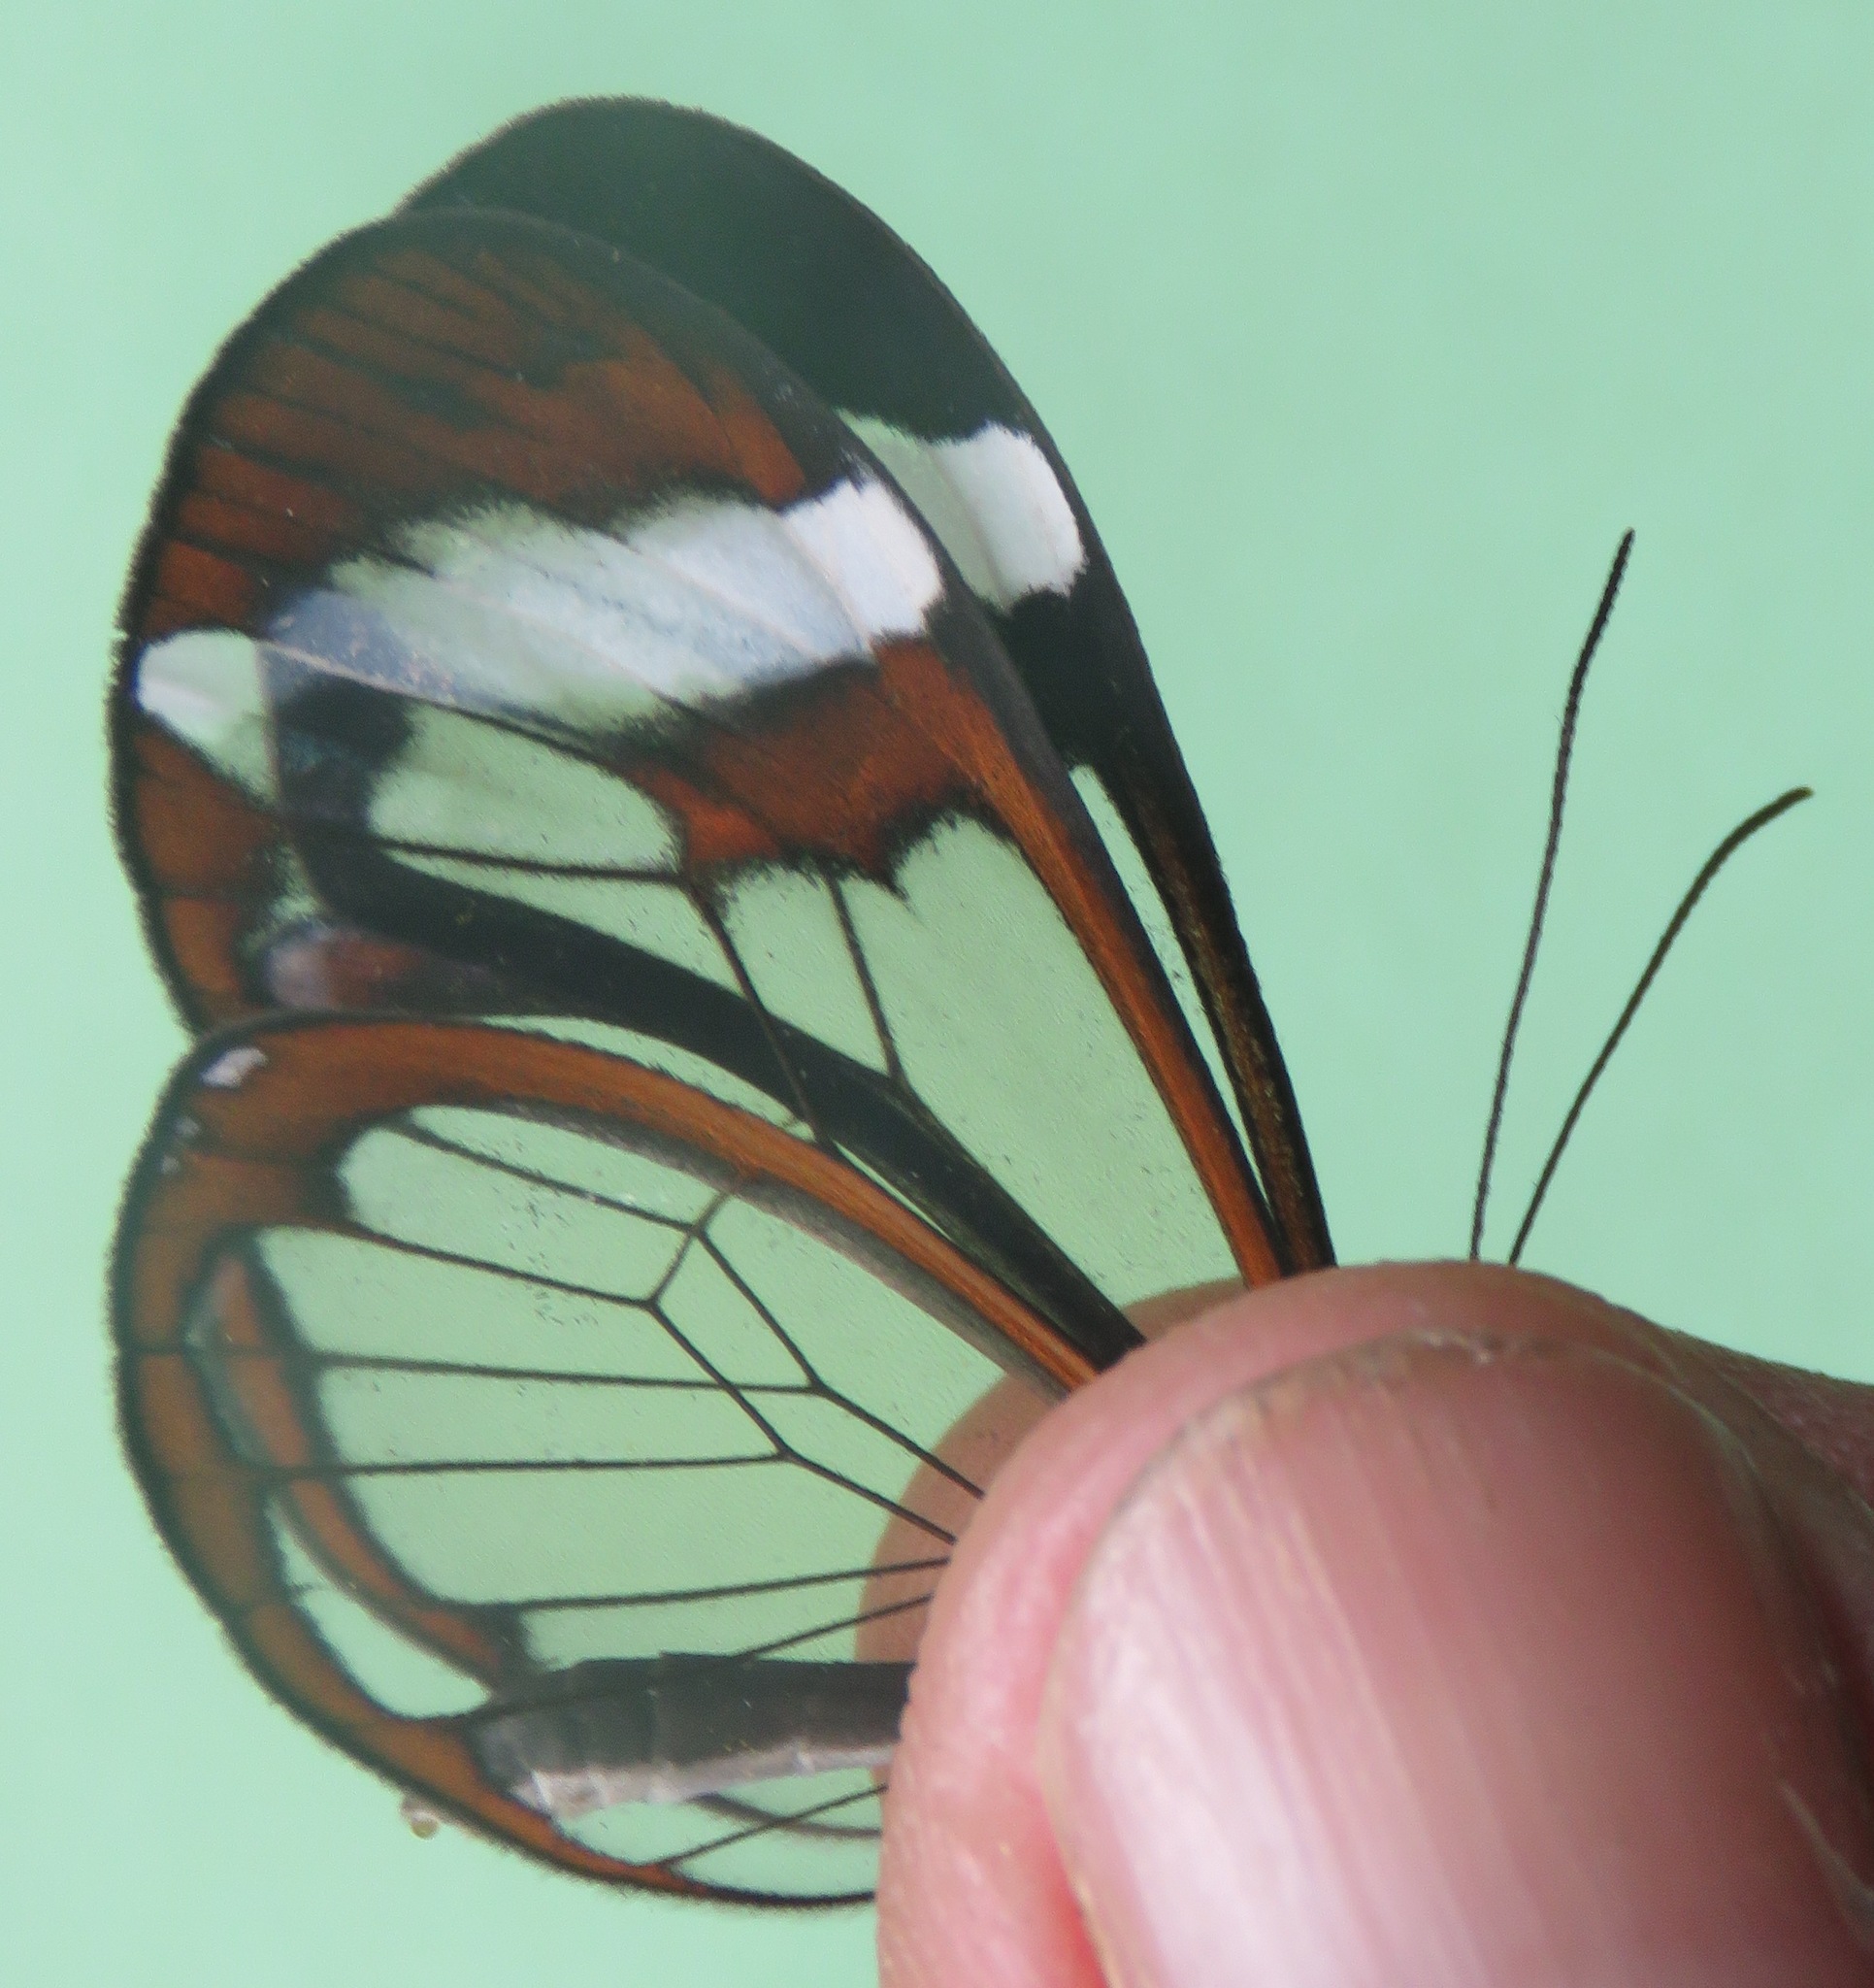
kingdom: Animalia
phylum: Arthropoda
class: Insecta
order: Lepidoptera
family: Nymphalidae
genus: Greta
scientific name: Greta morgane
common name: Thick-tipped greta
